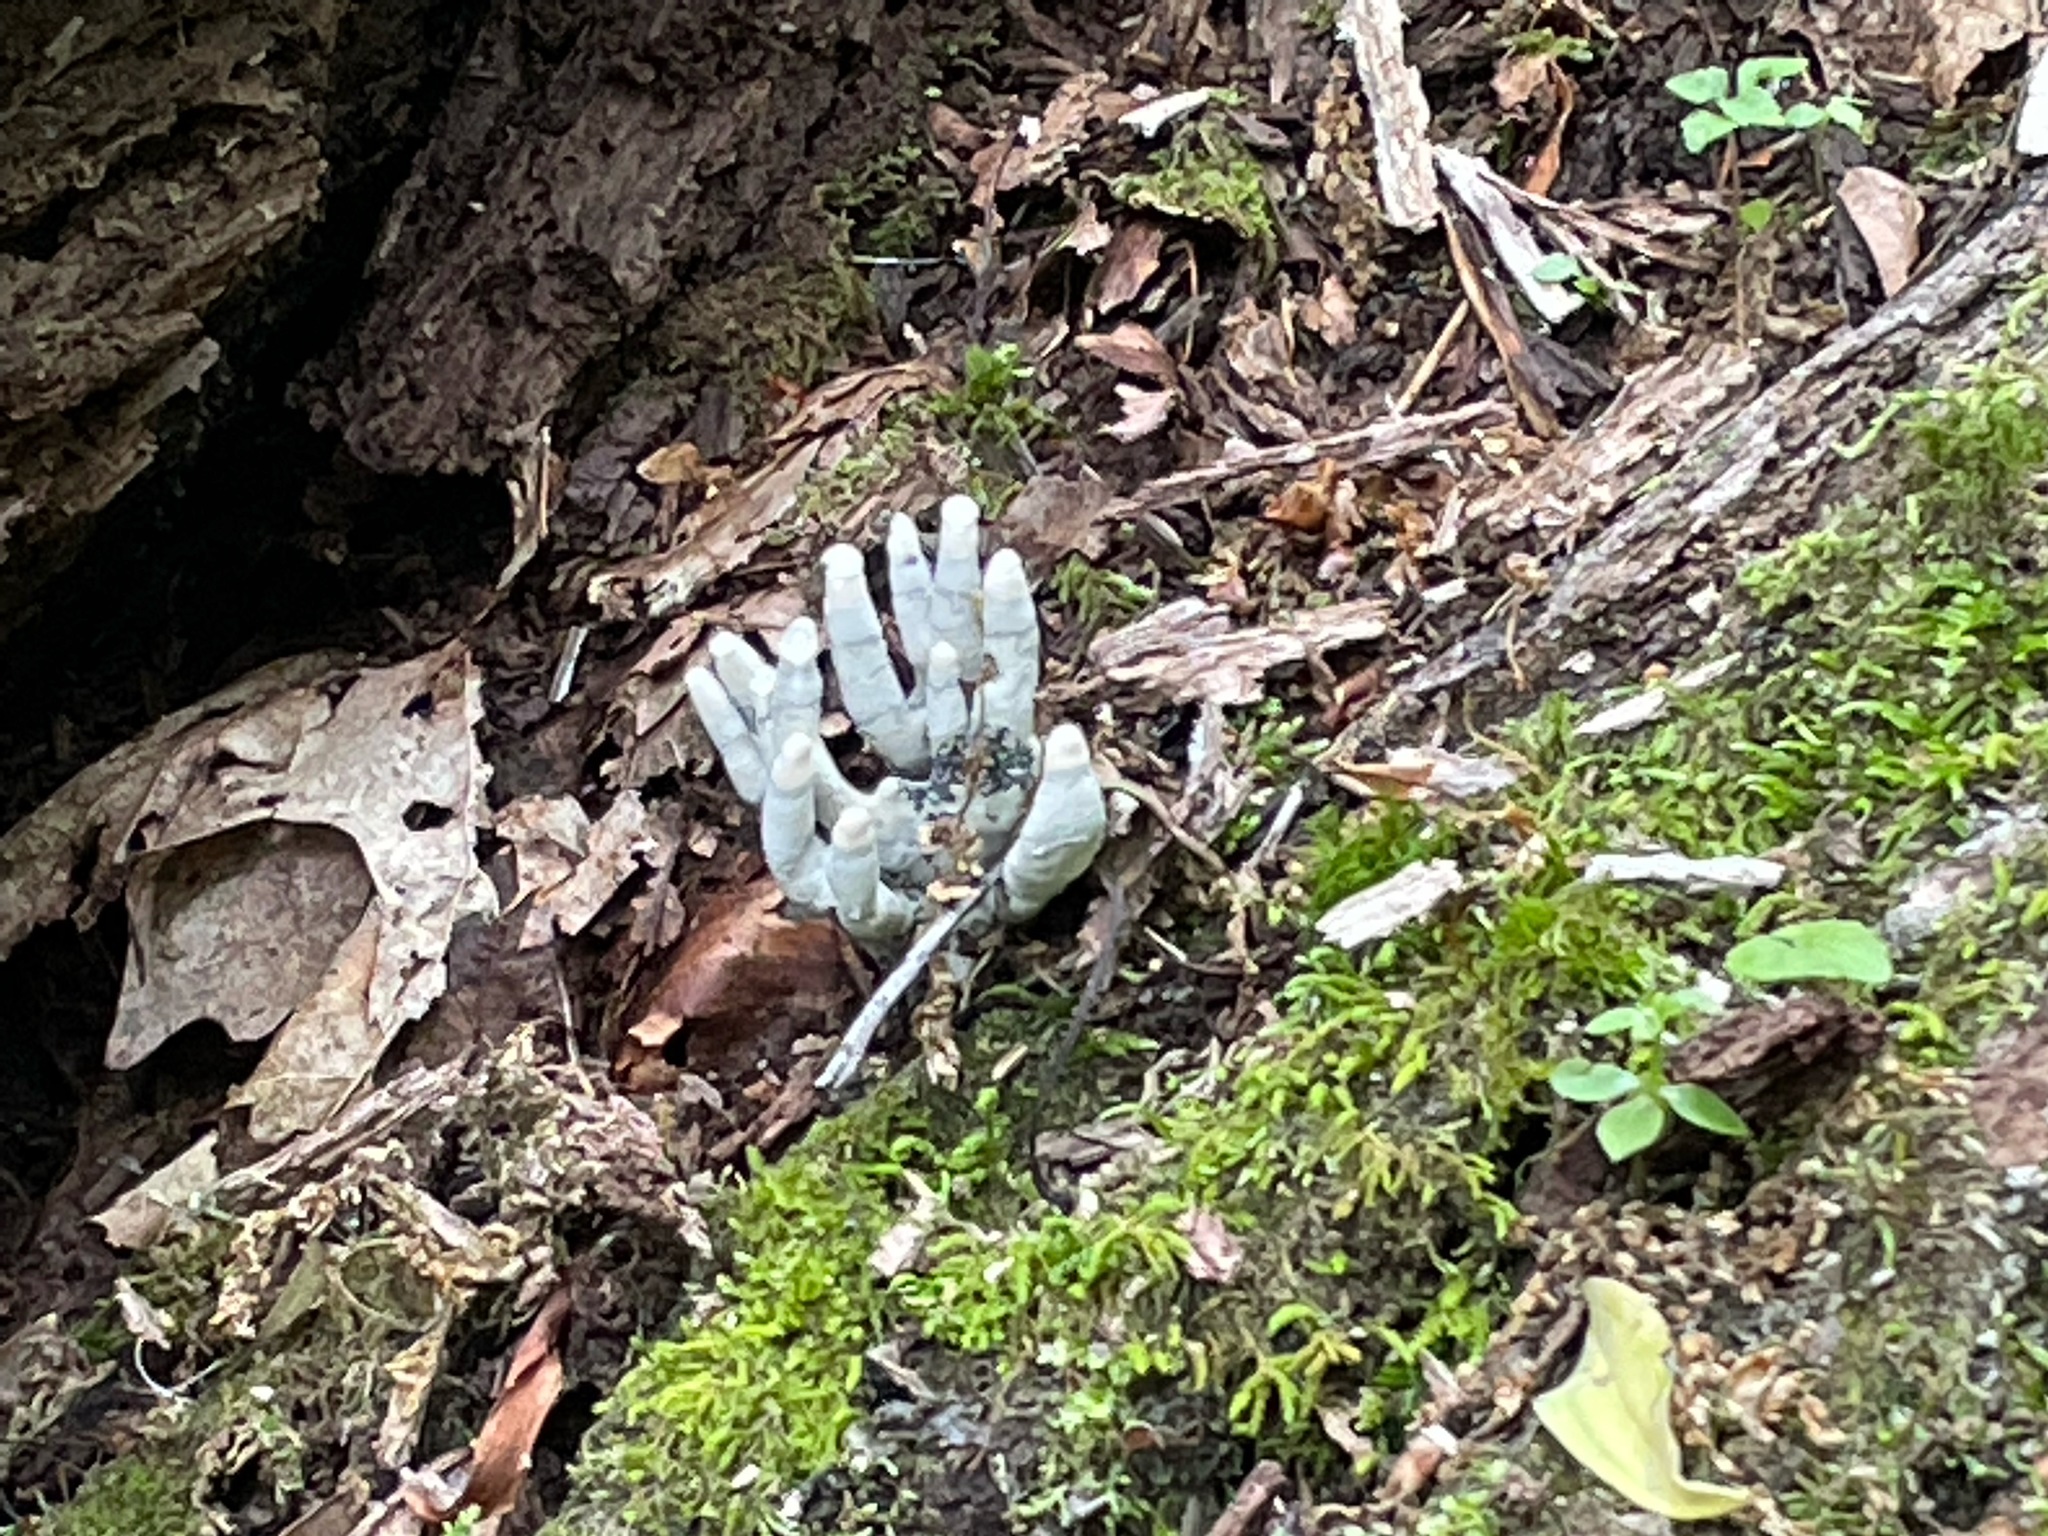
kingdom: Fungi
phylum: Ascomycota
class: Sordariomycetes
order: Xylariales
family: Xylariaceae
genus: Xylaria
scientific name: Xylaria polymorpha
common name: Dead man's fingers
